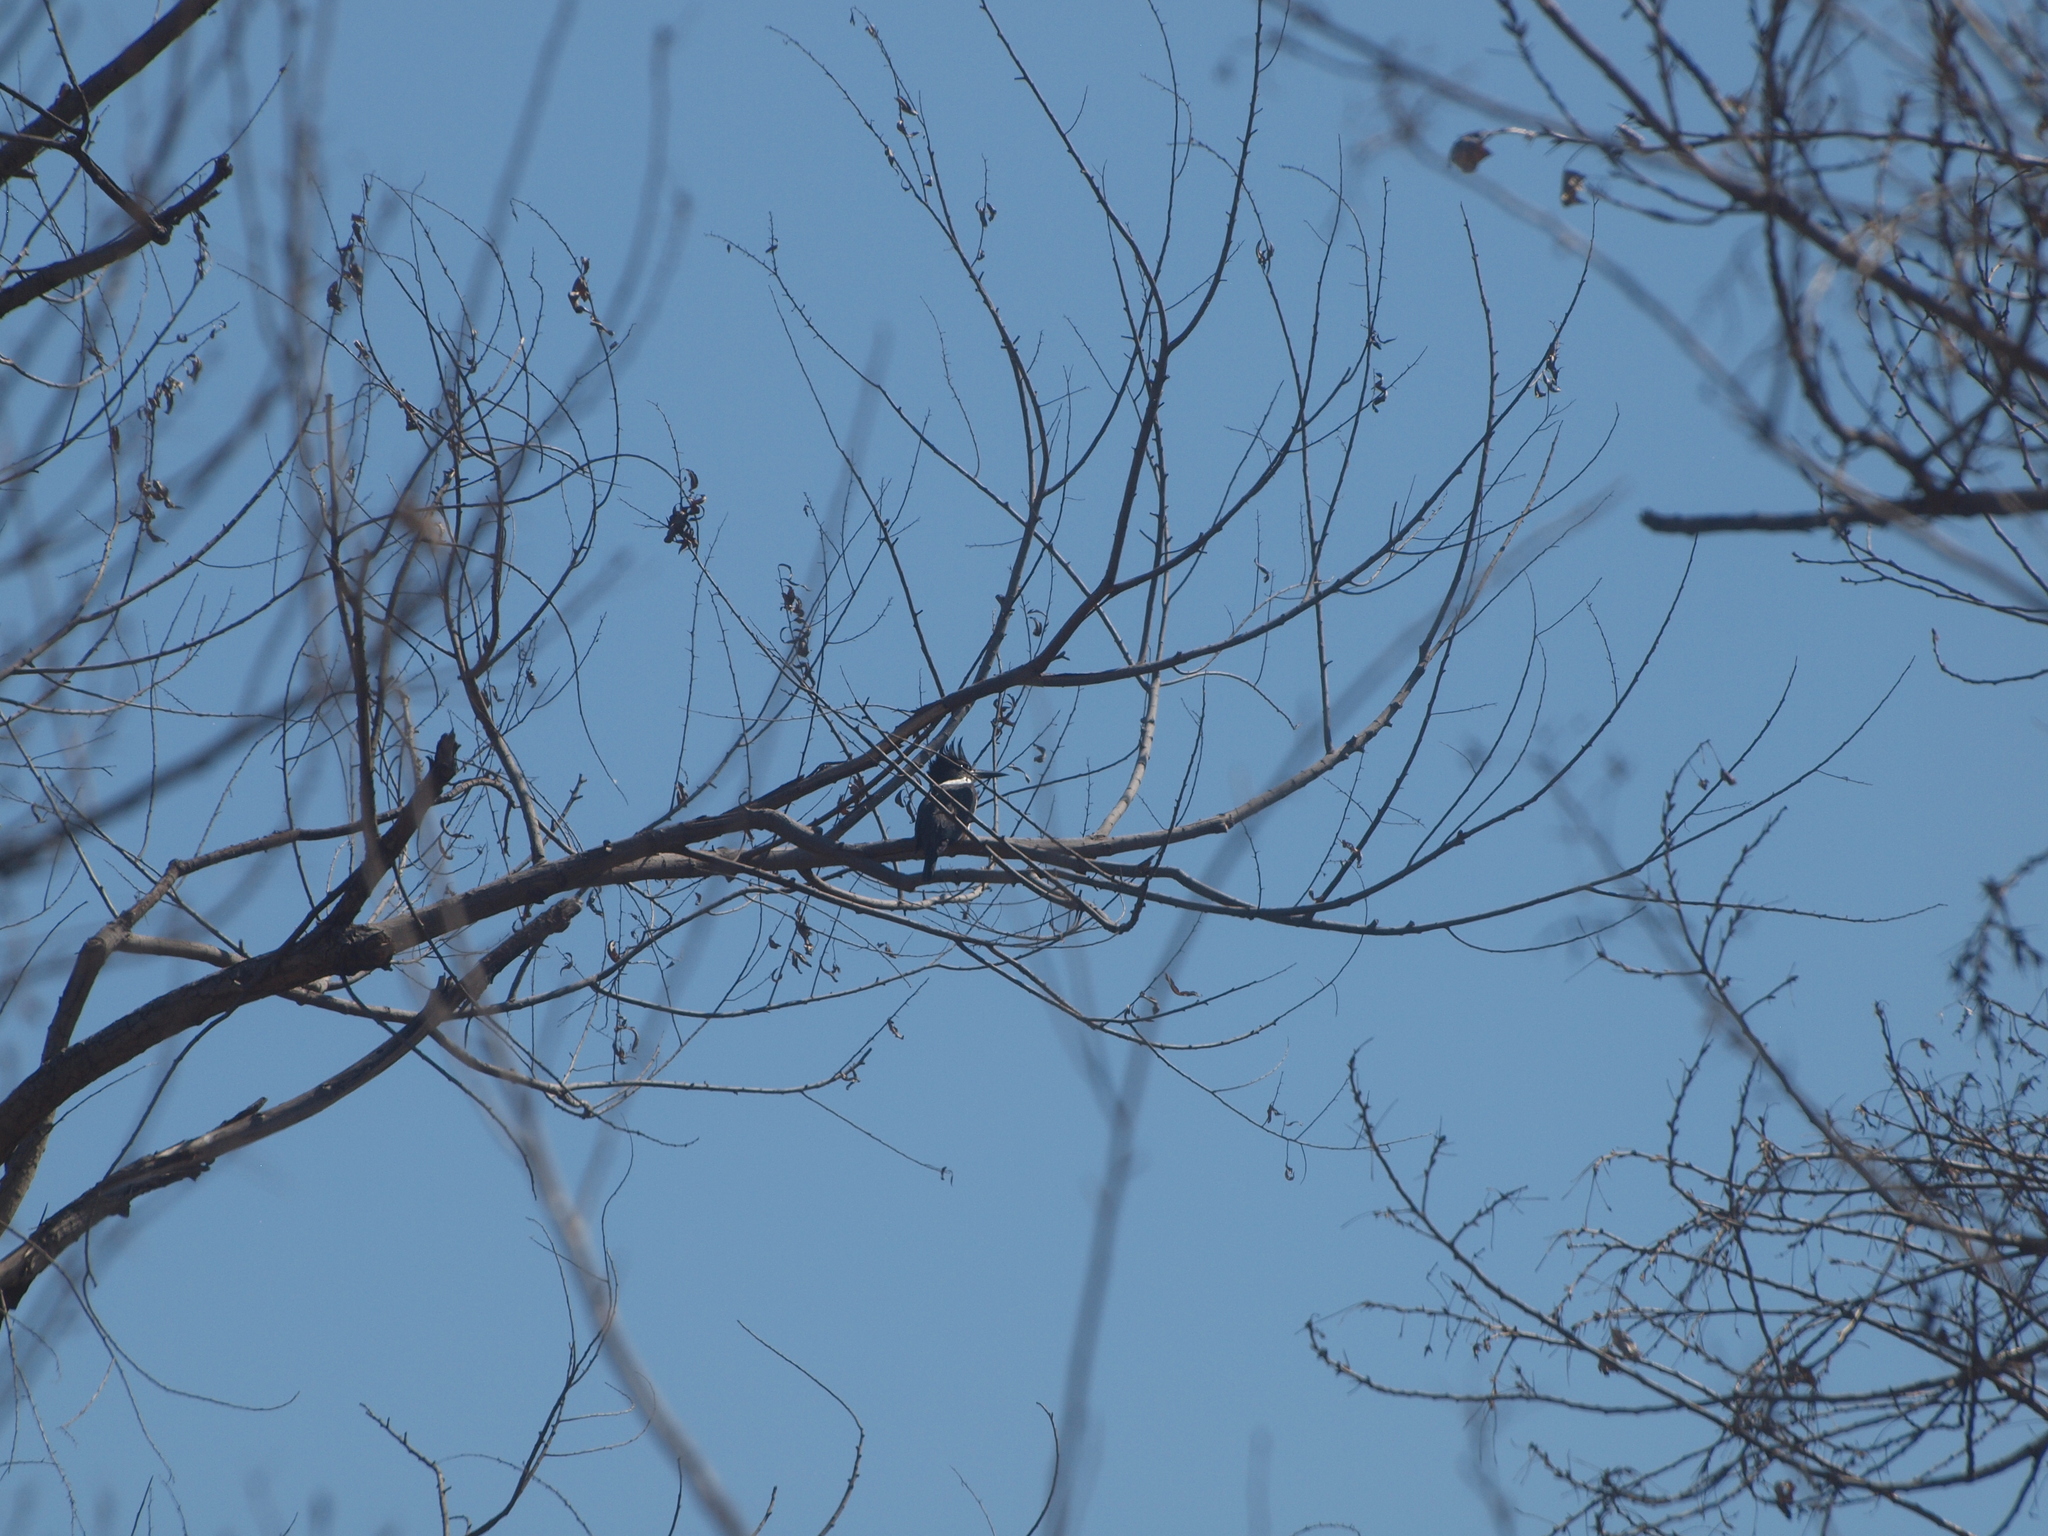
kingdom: Animalia
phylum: Chordata
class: Aves
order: Coraciiformes
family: Alcedinidae
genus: Megaceryle
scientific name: Megaceryle alcyon
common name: Belted kingfisher
